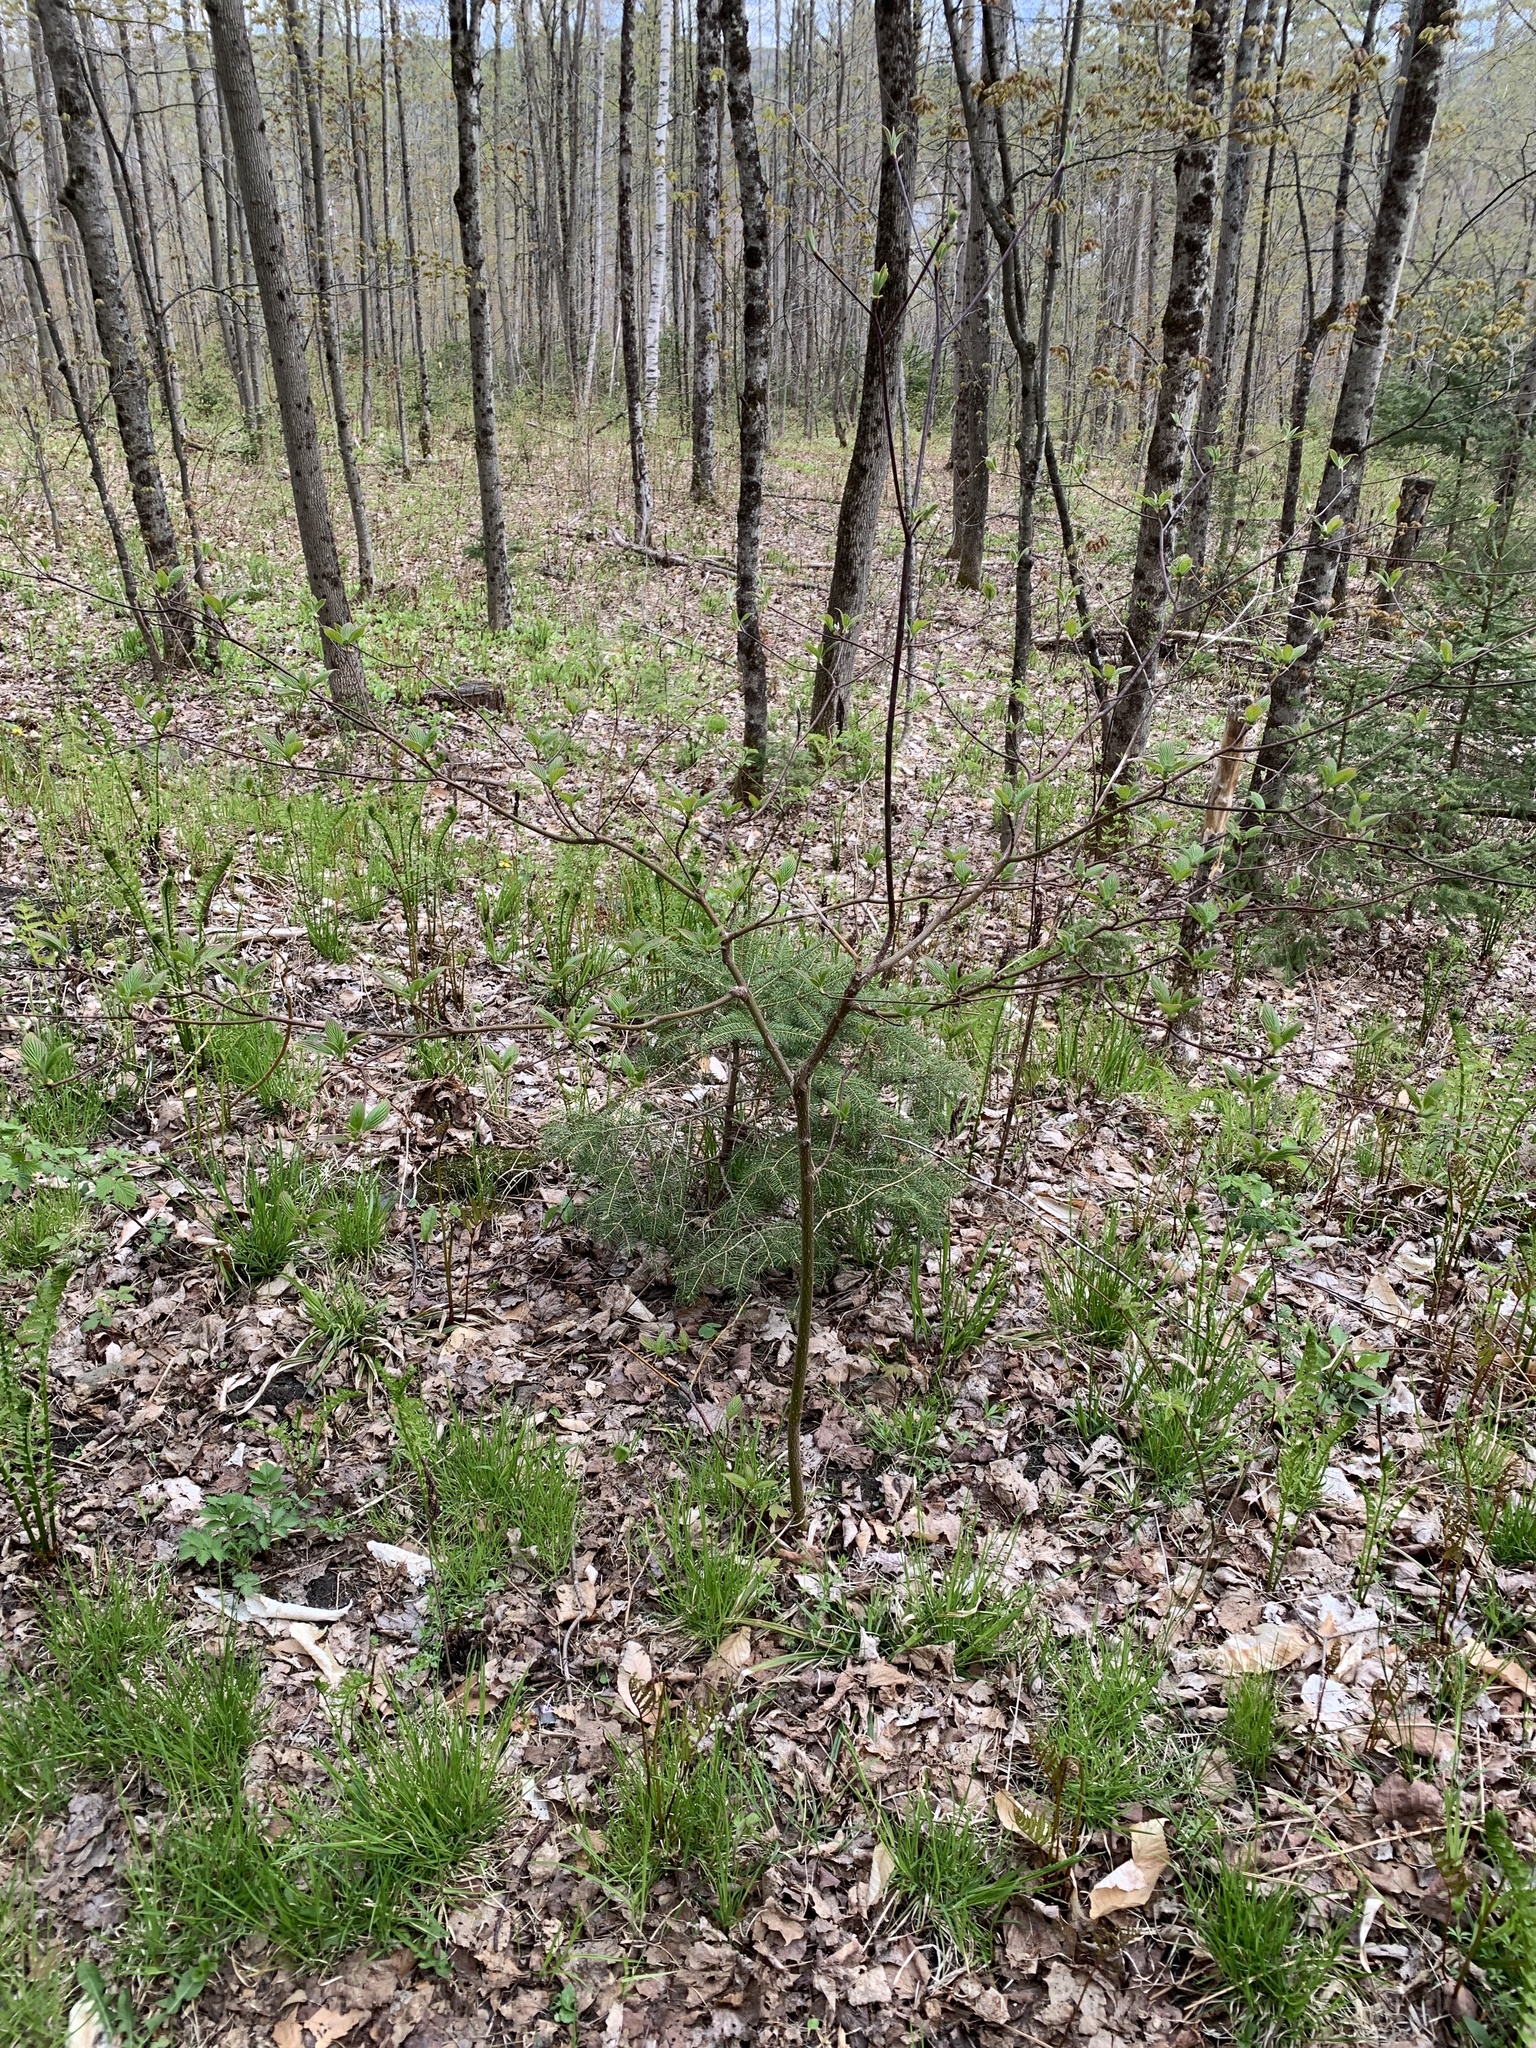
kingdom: Plantae
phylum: Tracheophyta
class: Magnoliopsida
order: Cornales
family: Cornaceae
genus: Cornus
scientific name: Cornus alternifolia
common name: Pagoda dogwood
